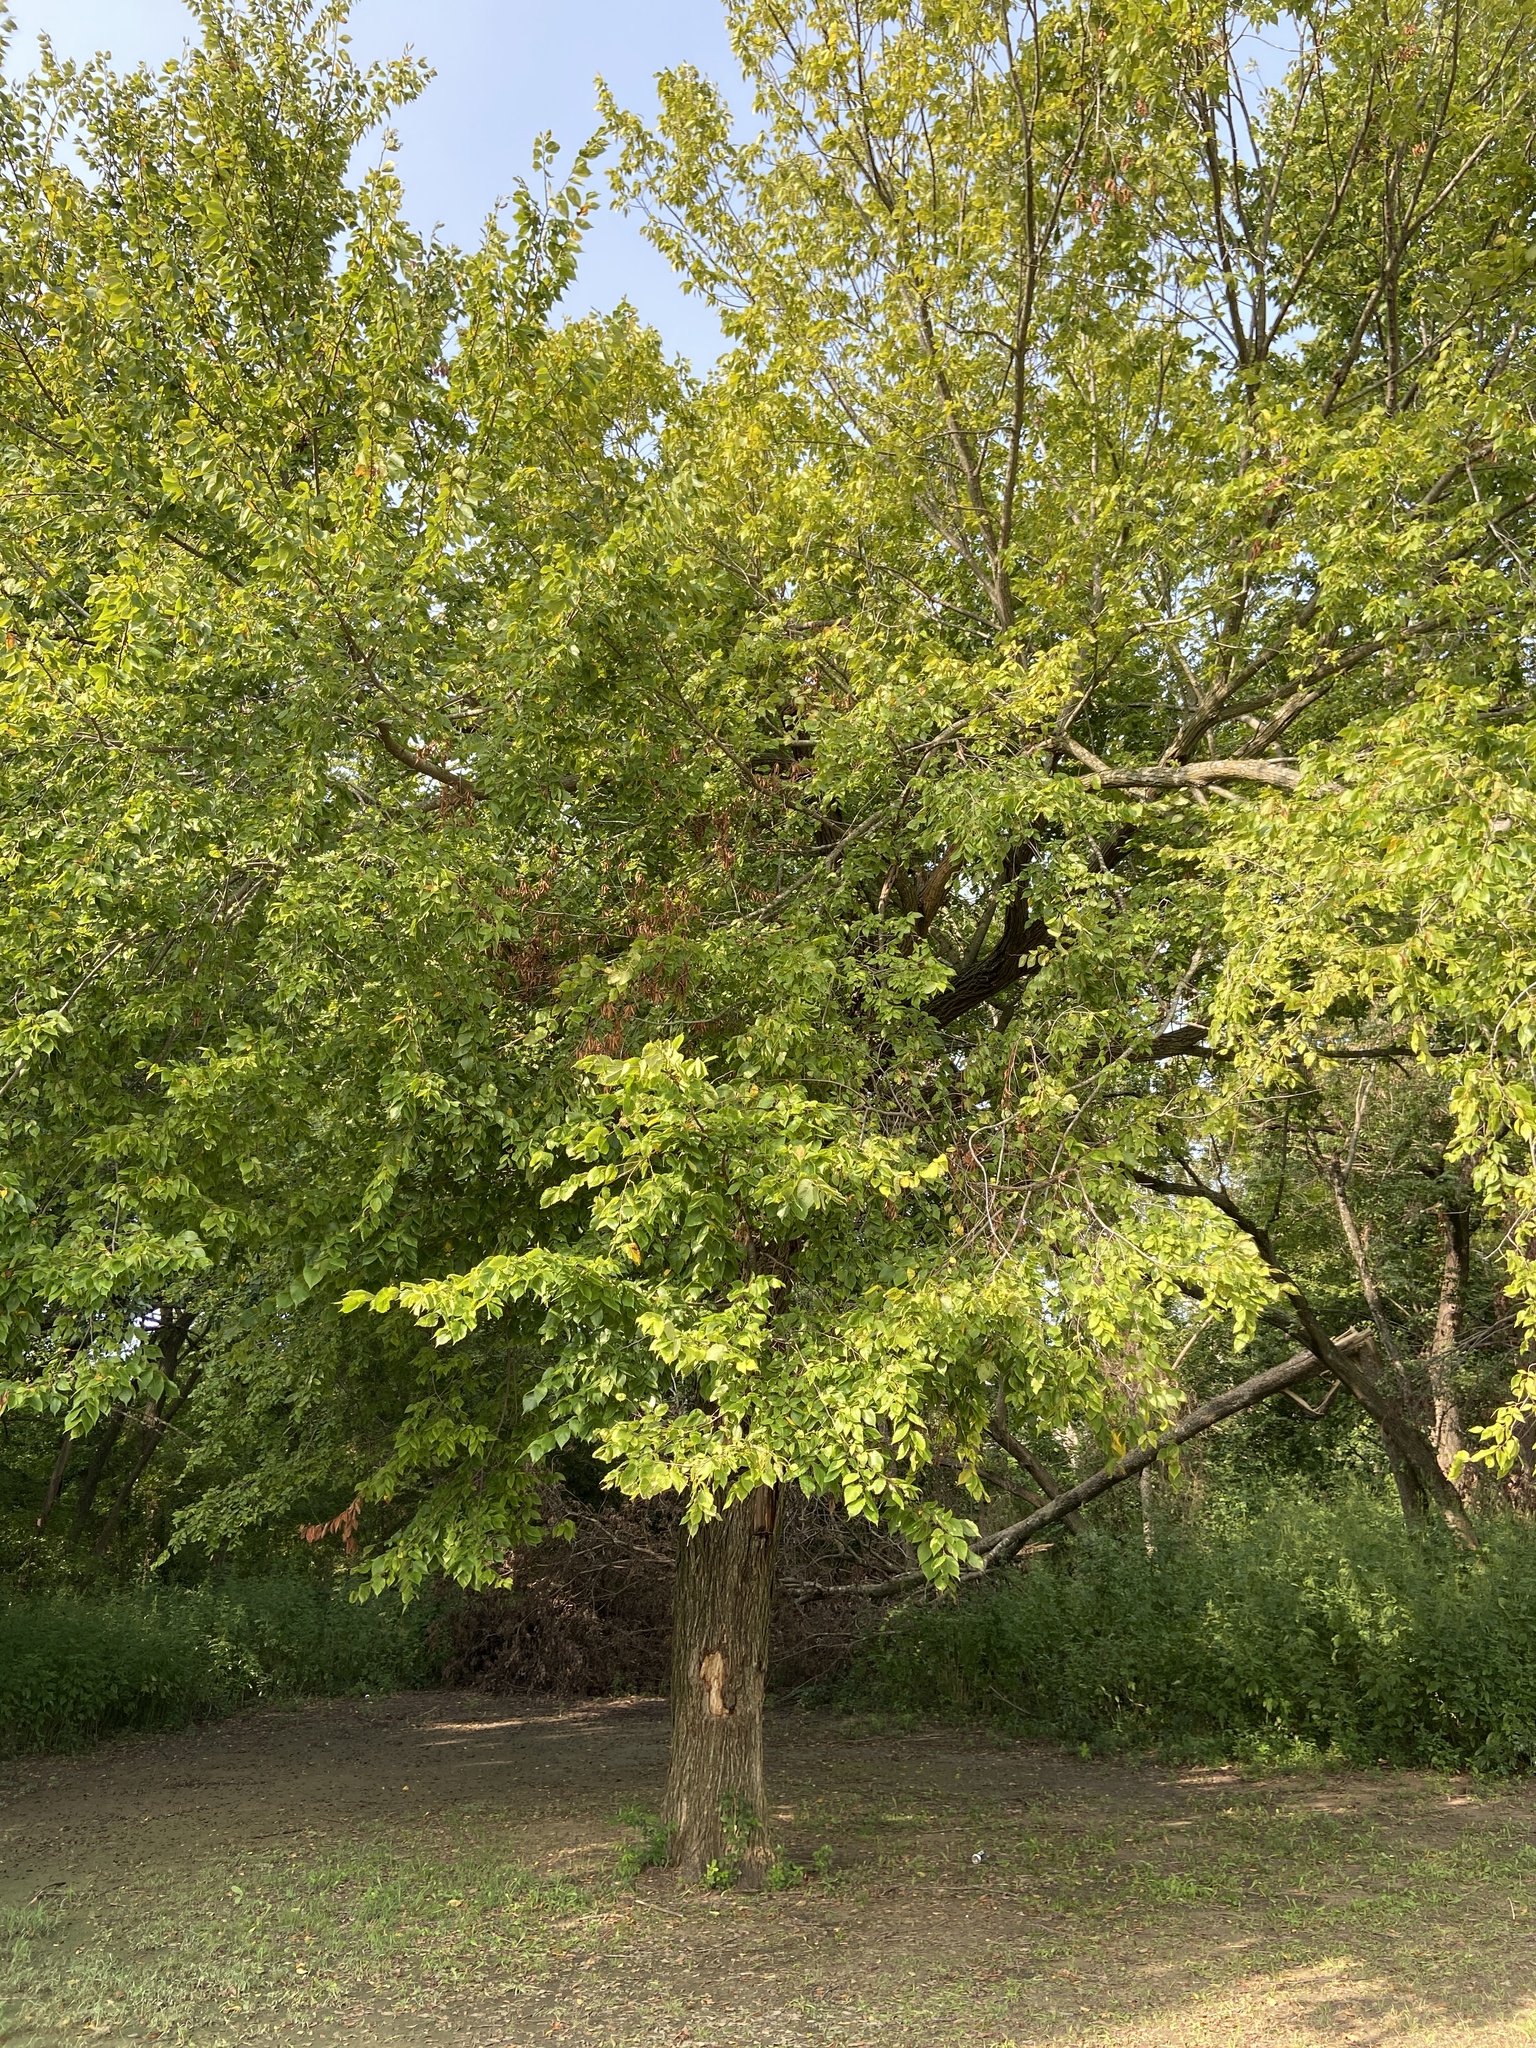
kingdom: Plantae
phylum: Tracheophyta
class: Magnoliopsida
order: Rosales
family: Ulmaceae
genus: Ulmus
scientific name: Ulmus americana
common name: American elm
